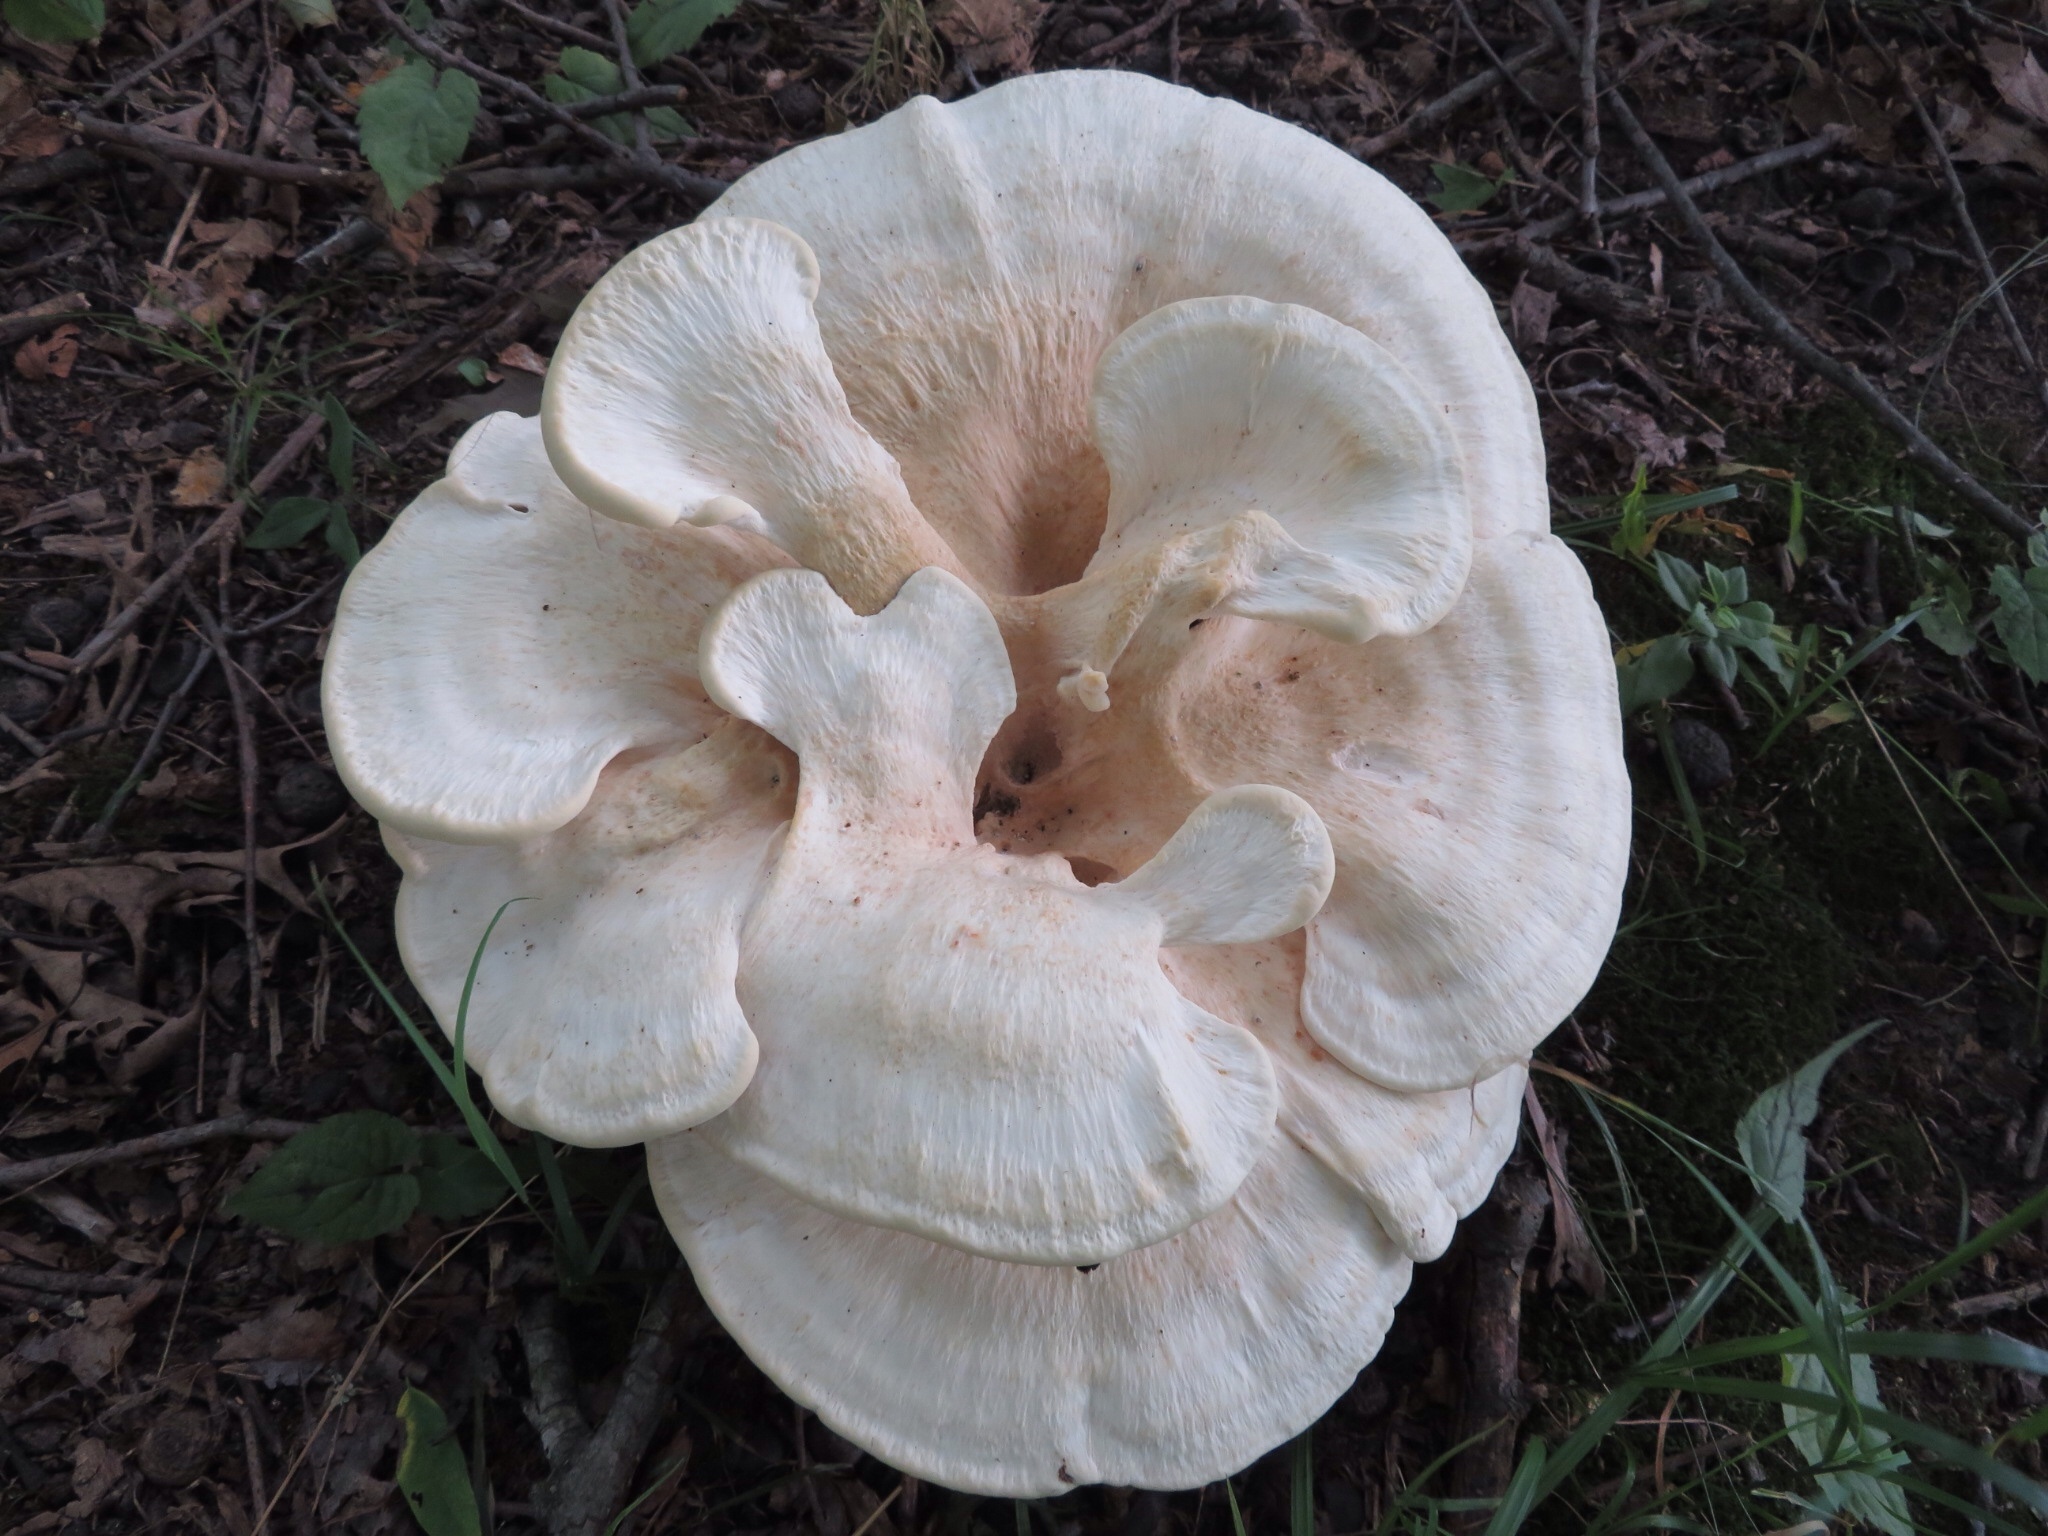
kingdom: Fungi
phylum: Basidiomycota
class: Agaricomycetes
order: Russulales
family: Bondarzewiaceae
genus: Bondarzewia
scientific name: Bondarzewia berkeleyi
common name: Berkeley's polypore
